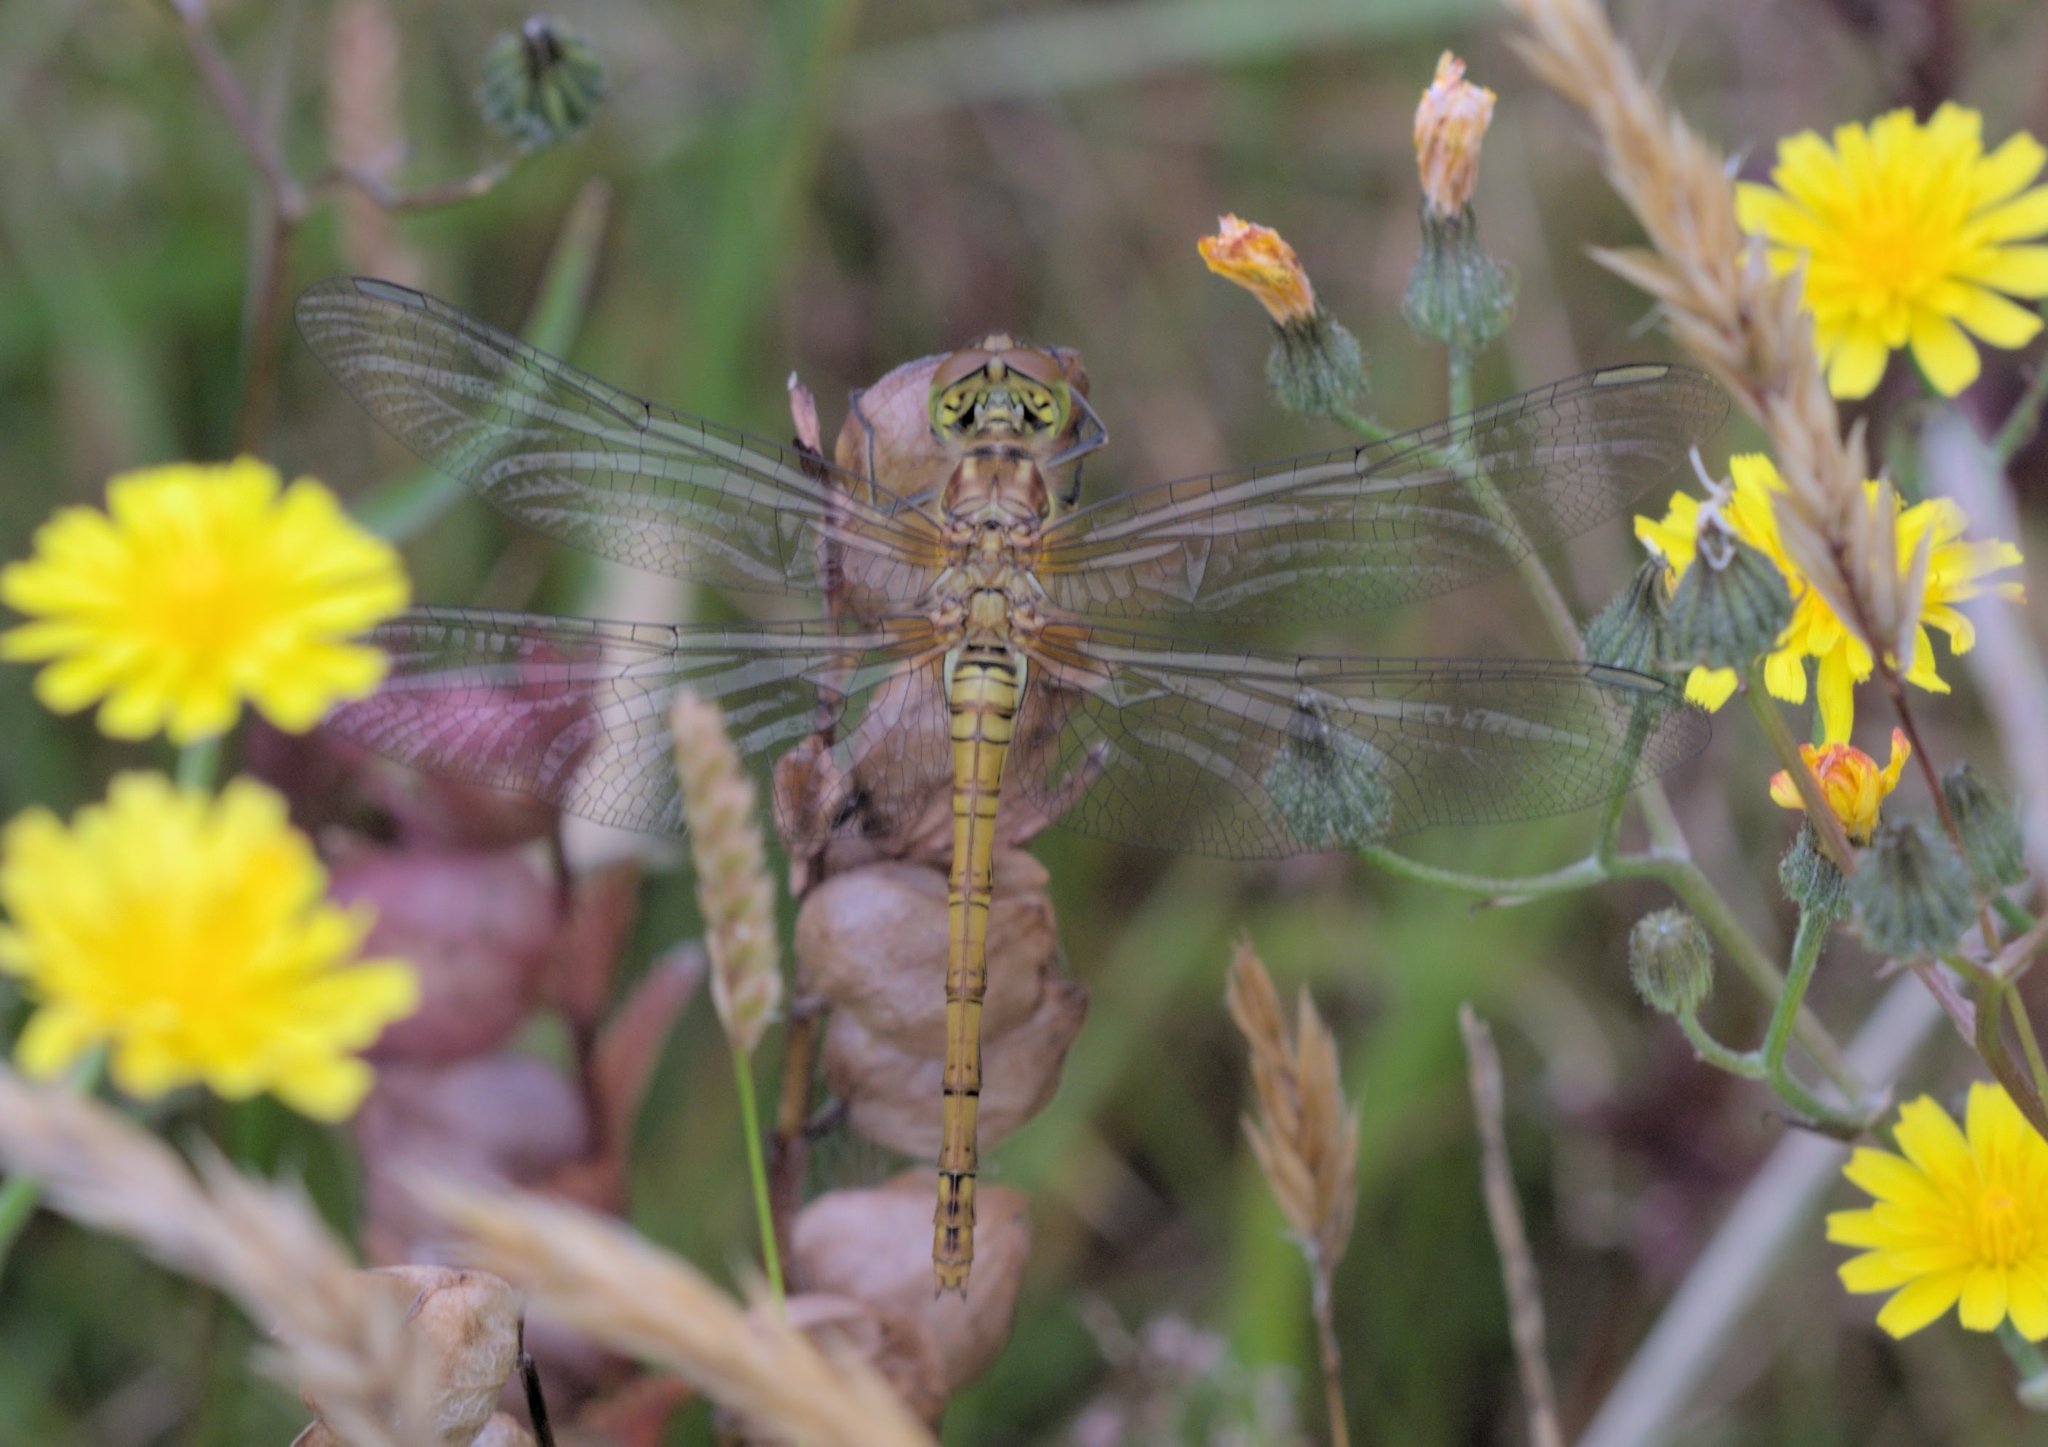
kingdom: Animalia
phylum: Arthropoda
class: Insecta
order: Odonata
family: Libellulidae
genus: Sympetrum
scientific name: Sympetrum striolatum
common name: Common darter
